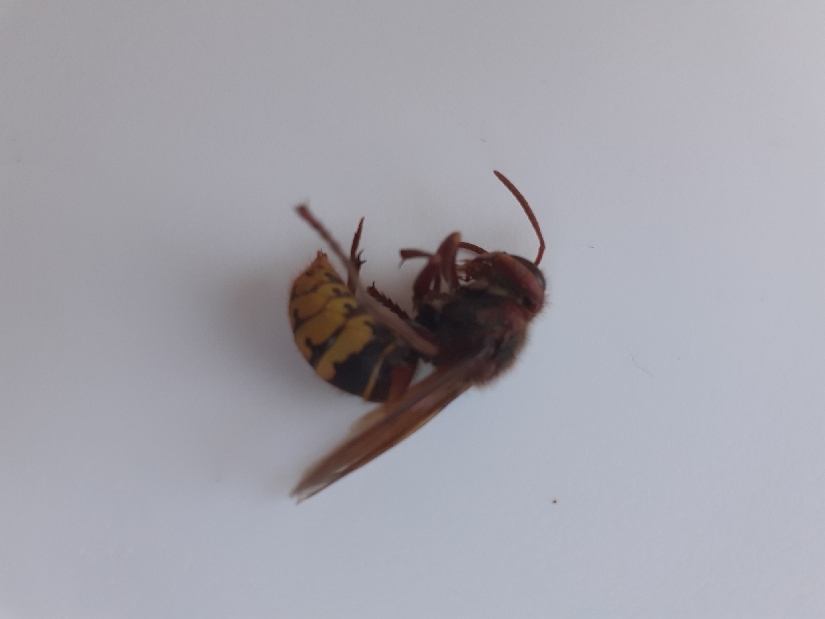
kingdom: Animalia
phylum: Arthropoda
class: Insecta
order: Hymenoptera
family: Vespidae
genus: Vespa
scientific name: Vespa crabro
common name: Hornet
